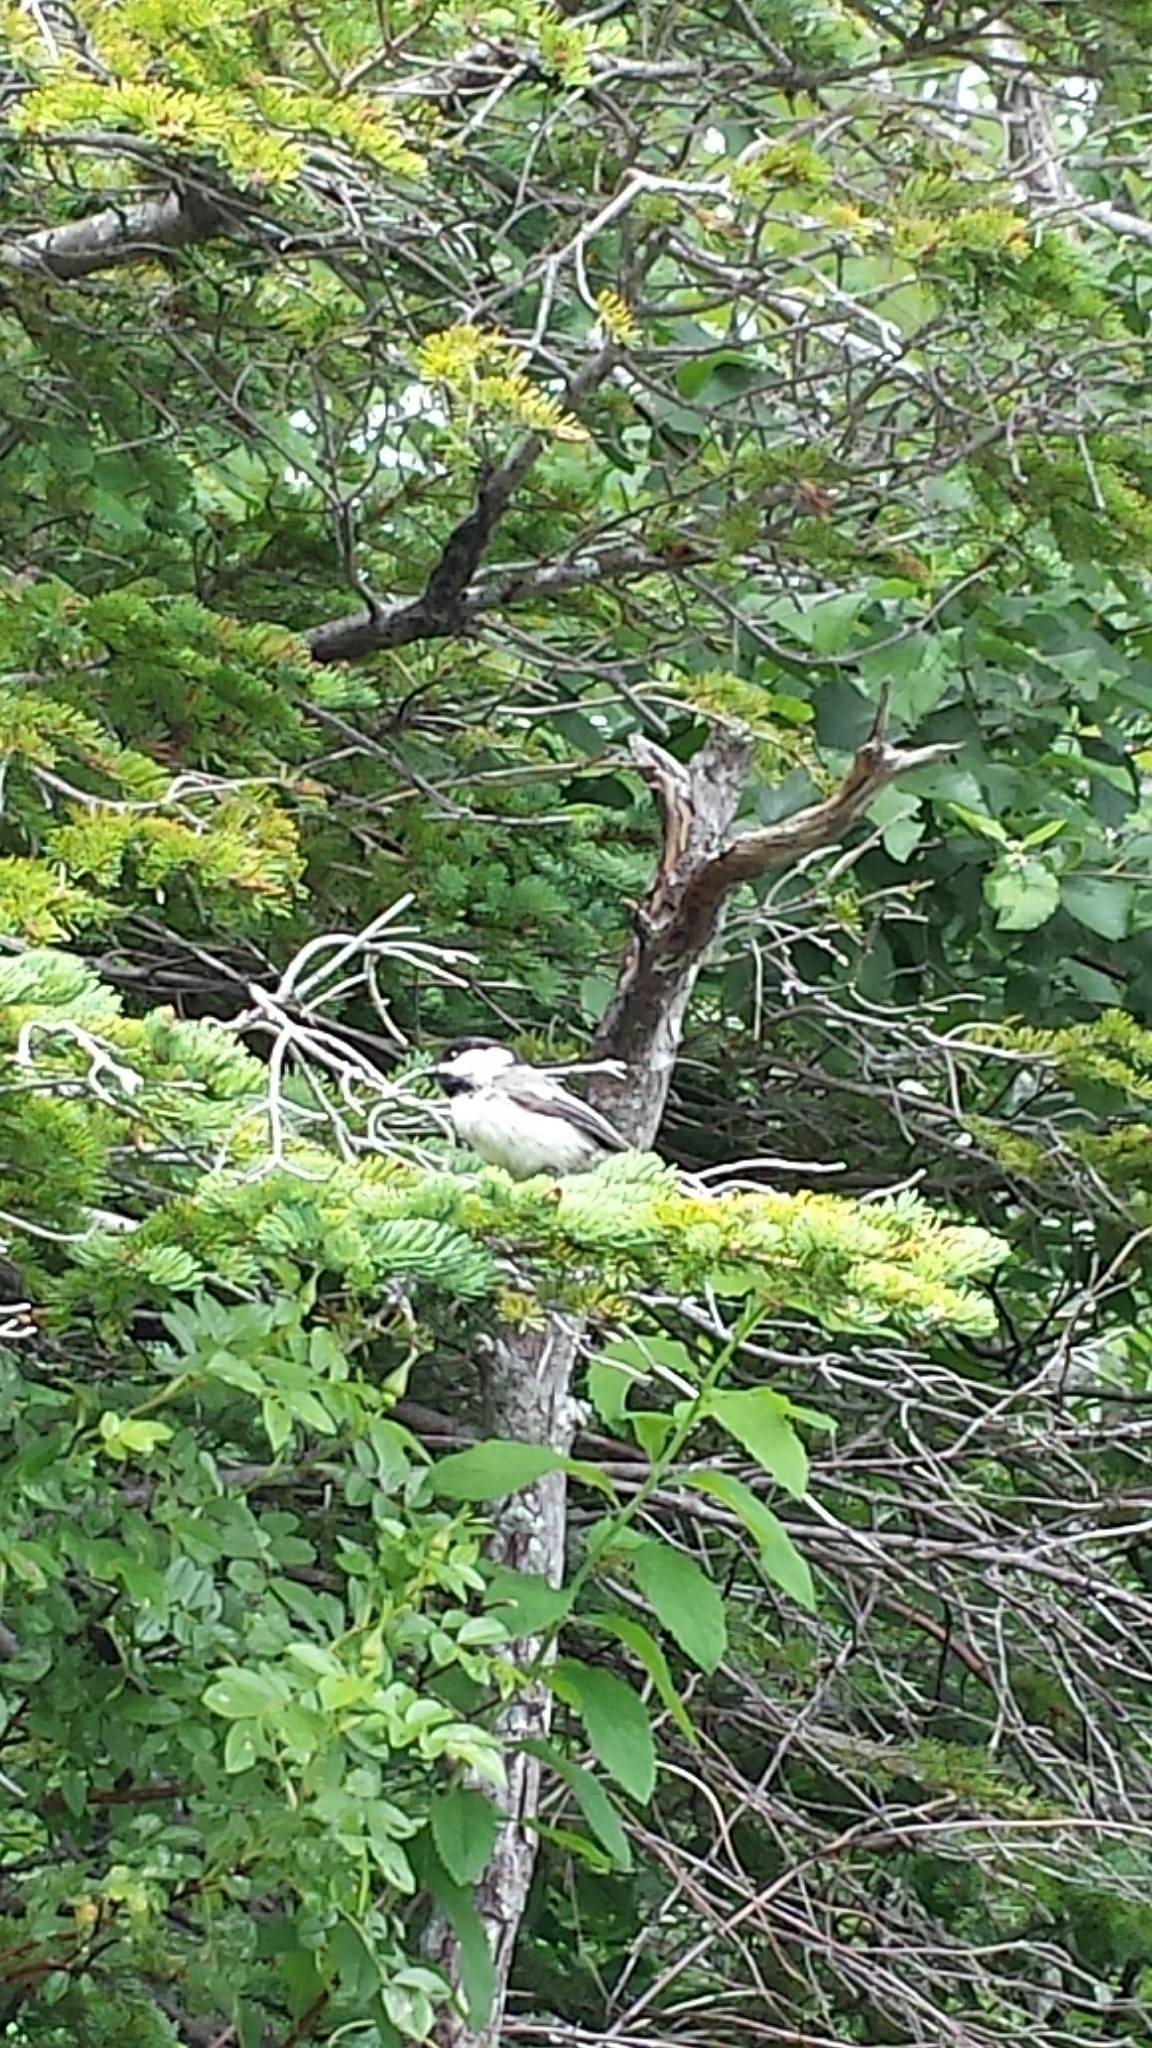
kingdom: Animalia
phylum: Chordata
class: Aves
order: Passeriformes
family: Paridae
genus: Poecile
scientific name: Poecile atricapillus
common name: Black-capped chickadee
